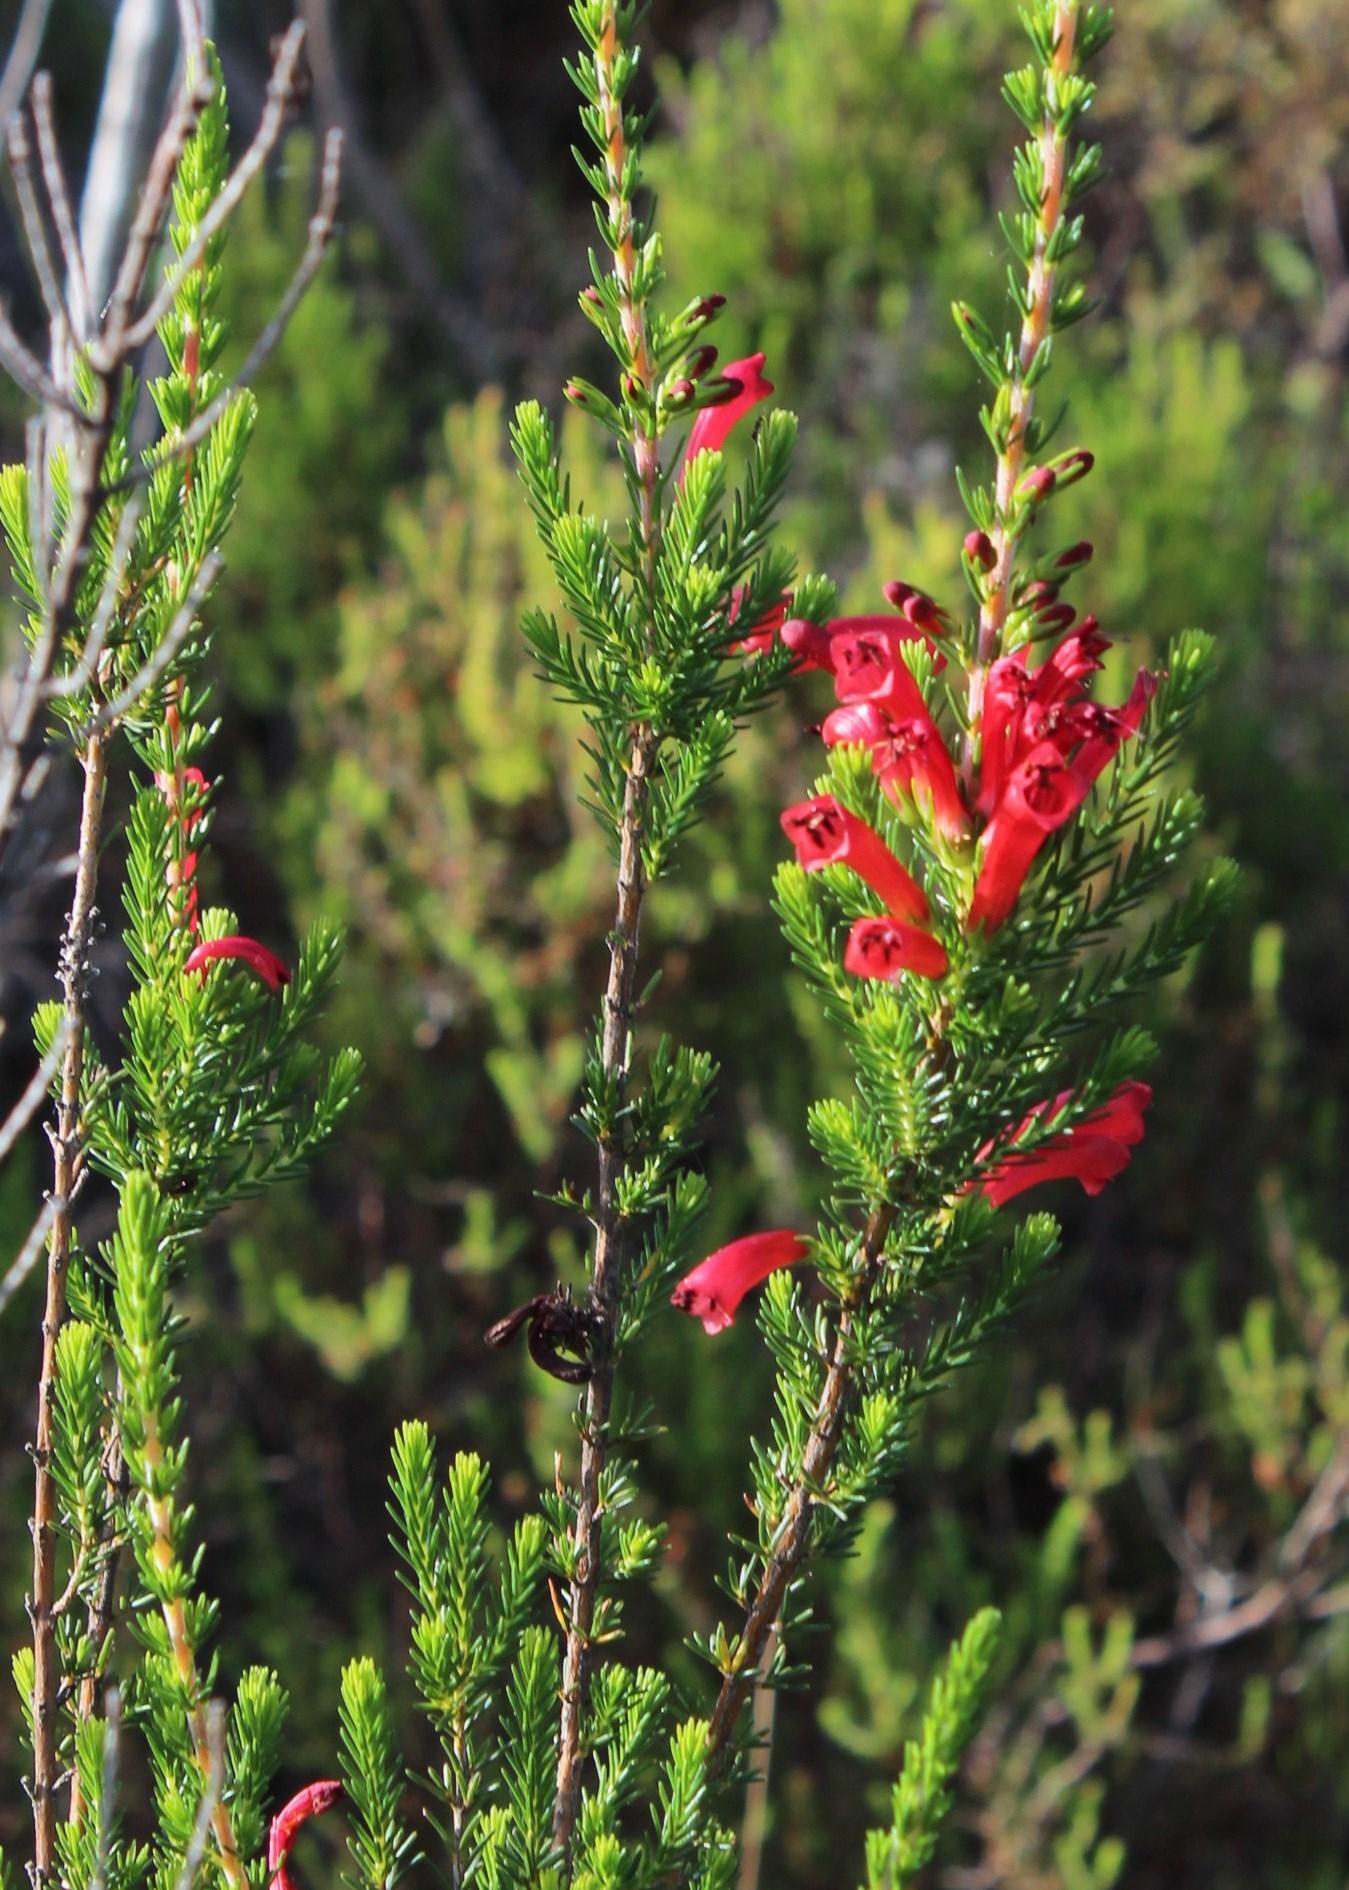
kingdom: Plantae
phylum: Tracheophyta
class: Magnoliopsida
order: Ericales
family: Ericaceae
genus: Erica
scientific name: Erica cruenta
